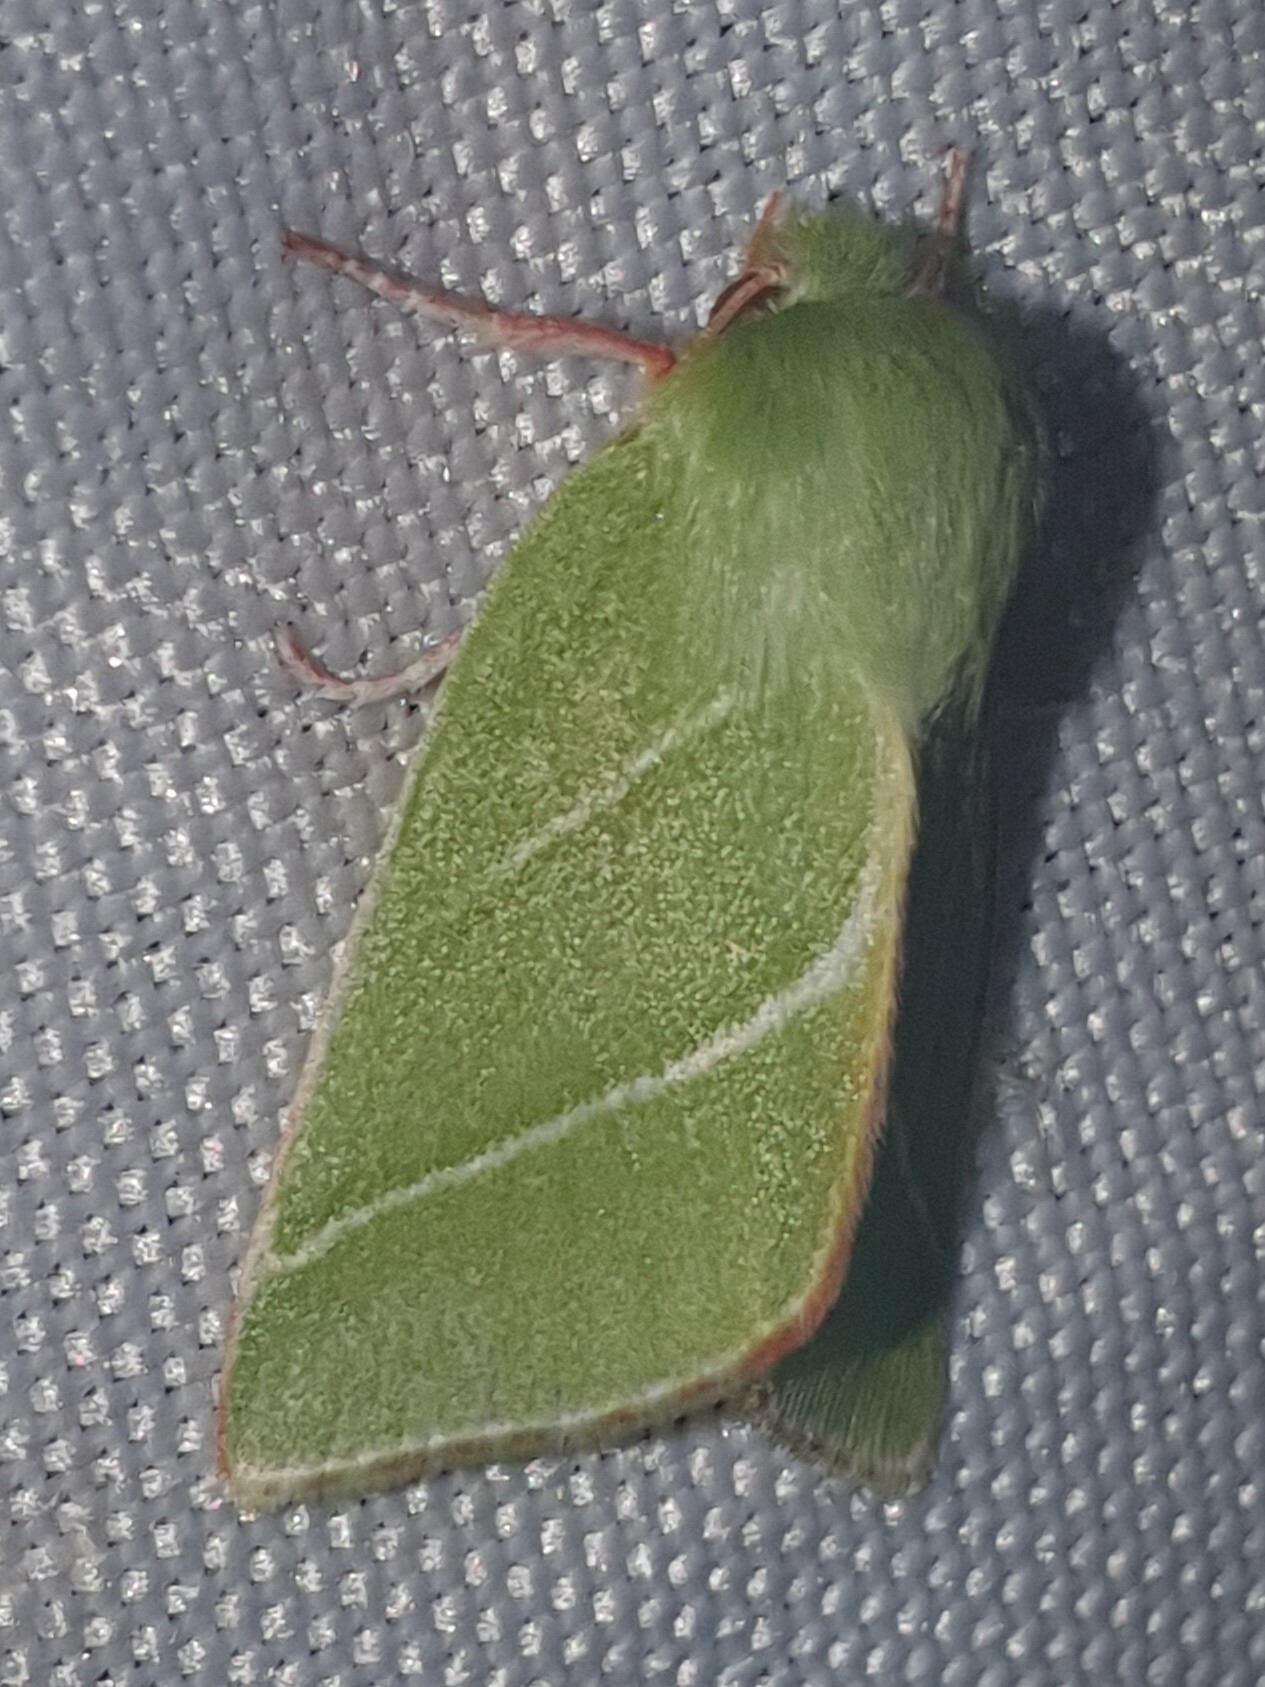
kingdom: Animalia
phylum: Arthropoda
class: Insecta
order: Lepidoptera
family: Nolidae
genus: Pseudoips
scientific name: Pseudoips prasinana
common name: Green silver-lines
